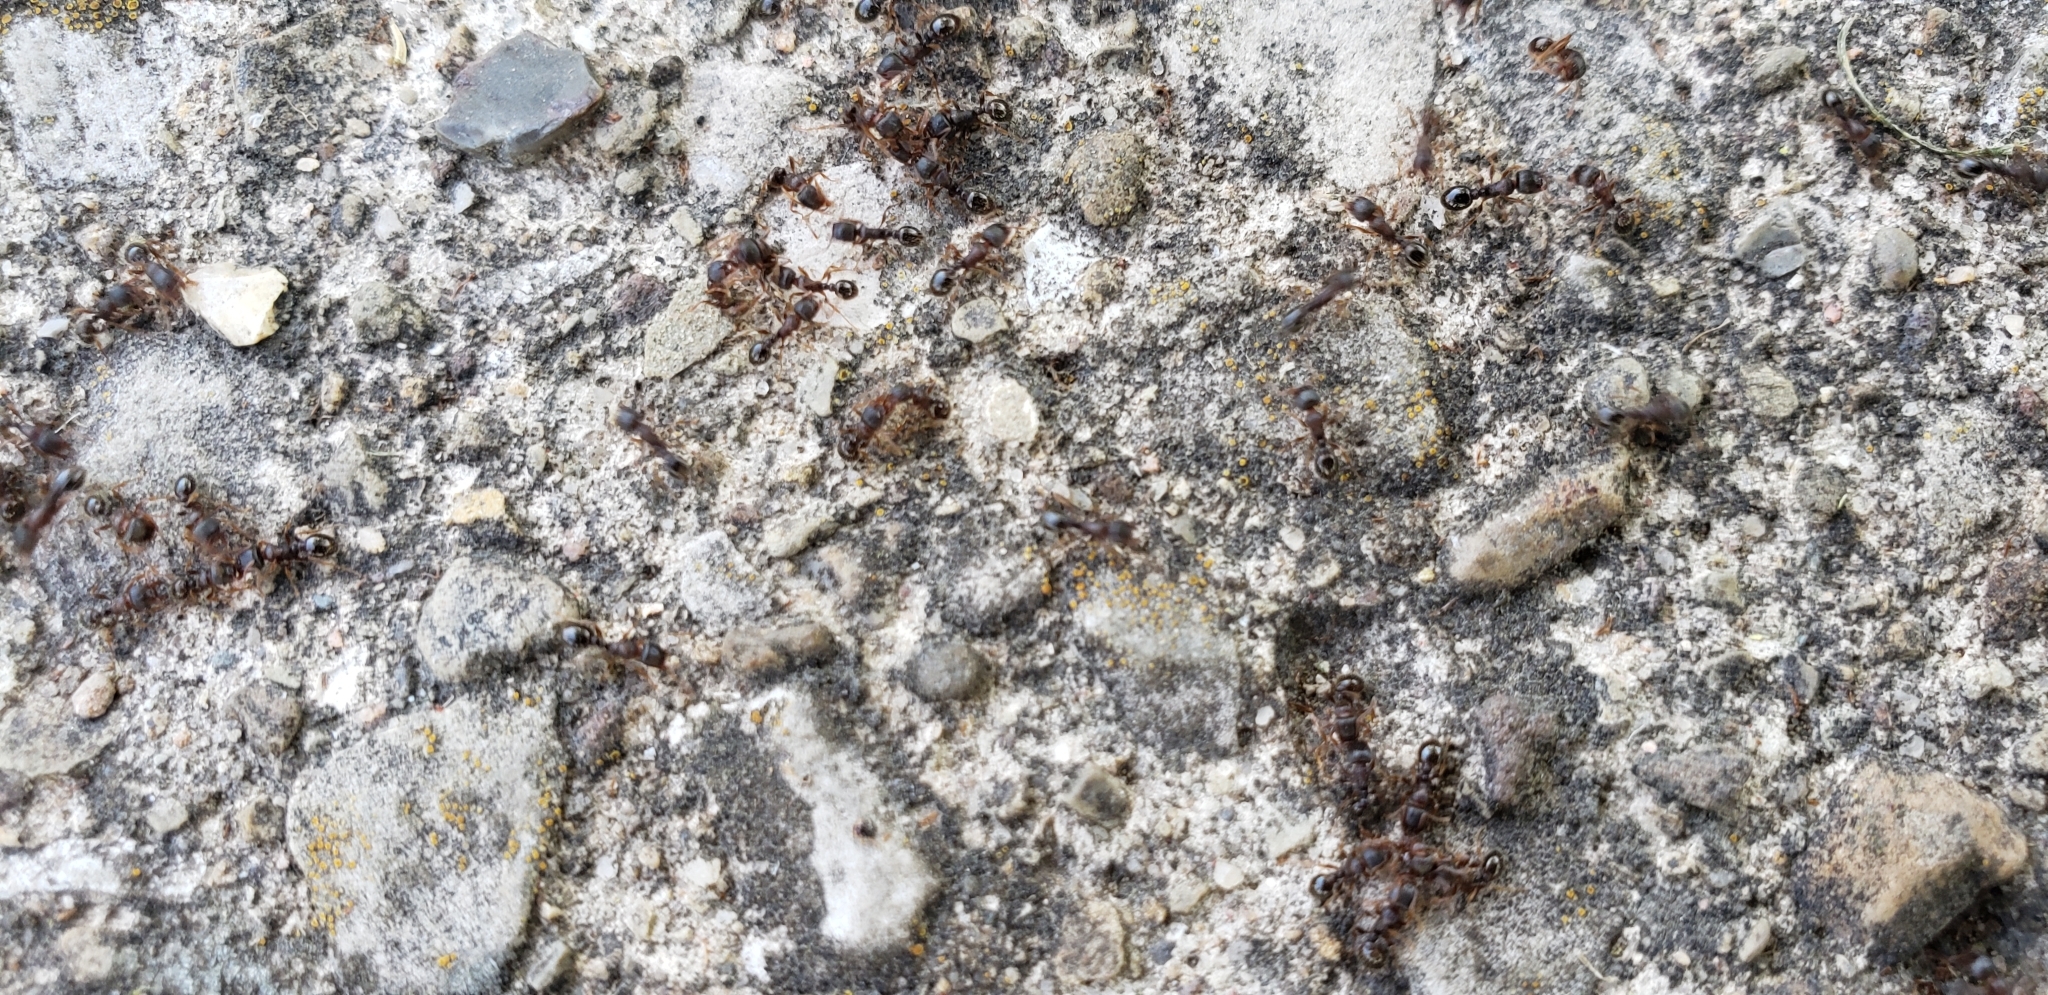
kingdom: Animalia
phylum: Arthropoda
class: Insecta
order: Hymenoptera
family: Formicidae
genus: Tetramorium
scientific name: Tetramorium immigrans
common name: Pavement ant
